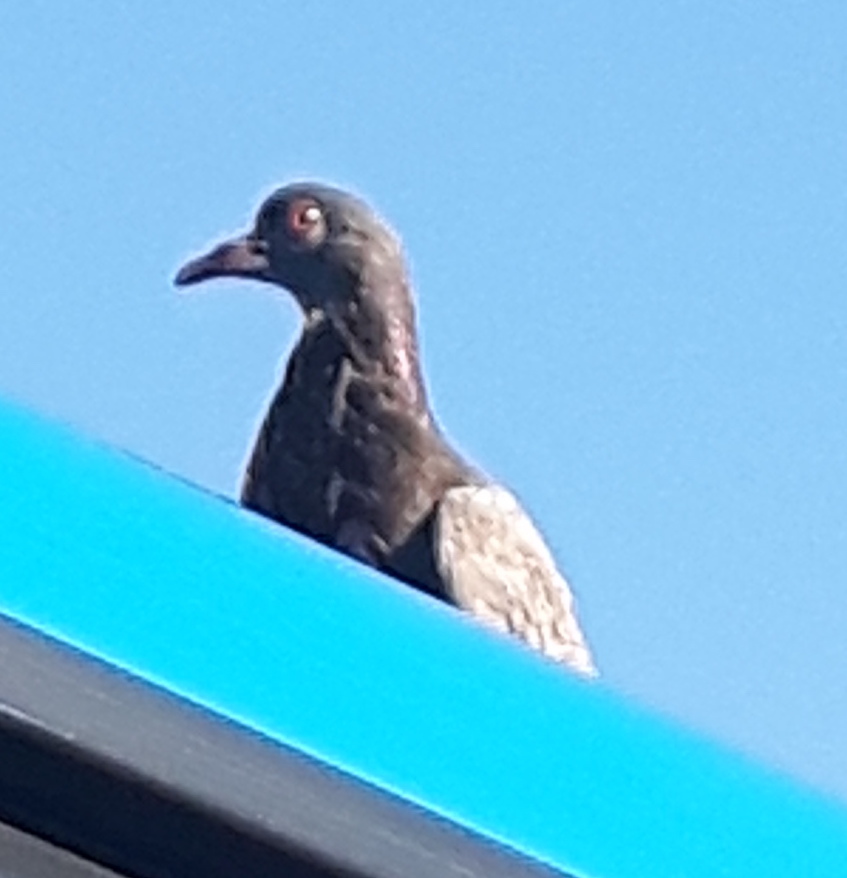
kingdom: Animalia
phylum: Chordata
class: Aves
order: Columbiformes
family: Columbidae
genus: Columba
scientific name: Columba livia
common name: Rock pigeon
